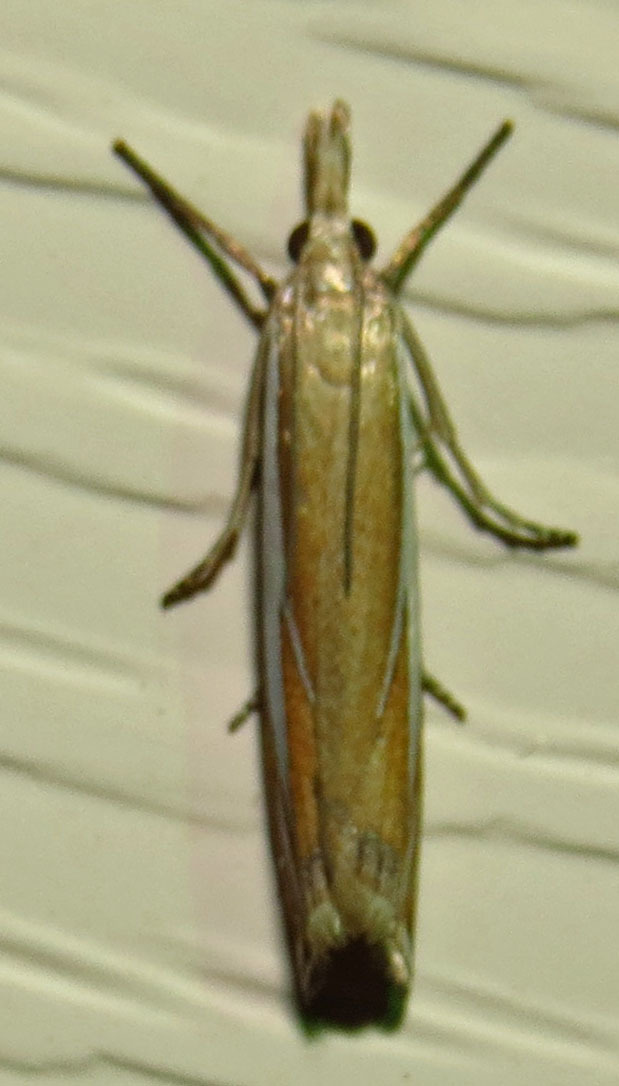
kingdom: Animalia
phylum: Arthropoda
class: Insecta
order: Lepidoptera
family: Crambidae
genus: Crambus
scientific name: Crambus satrapellus
